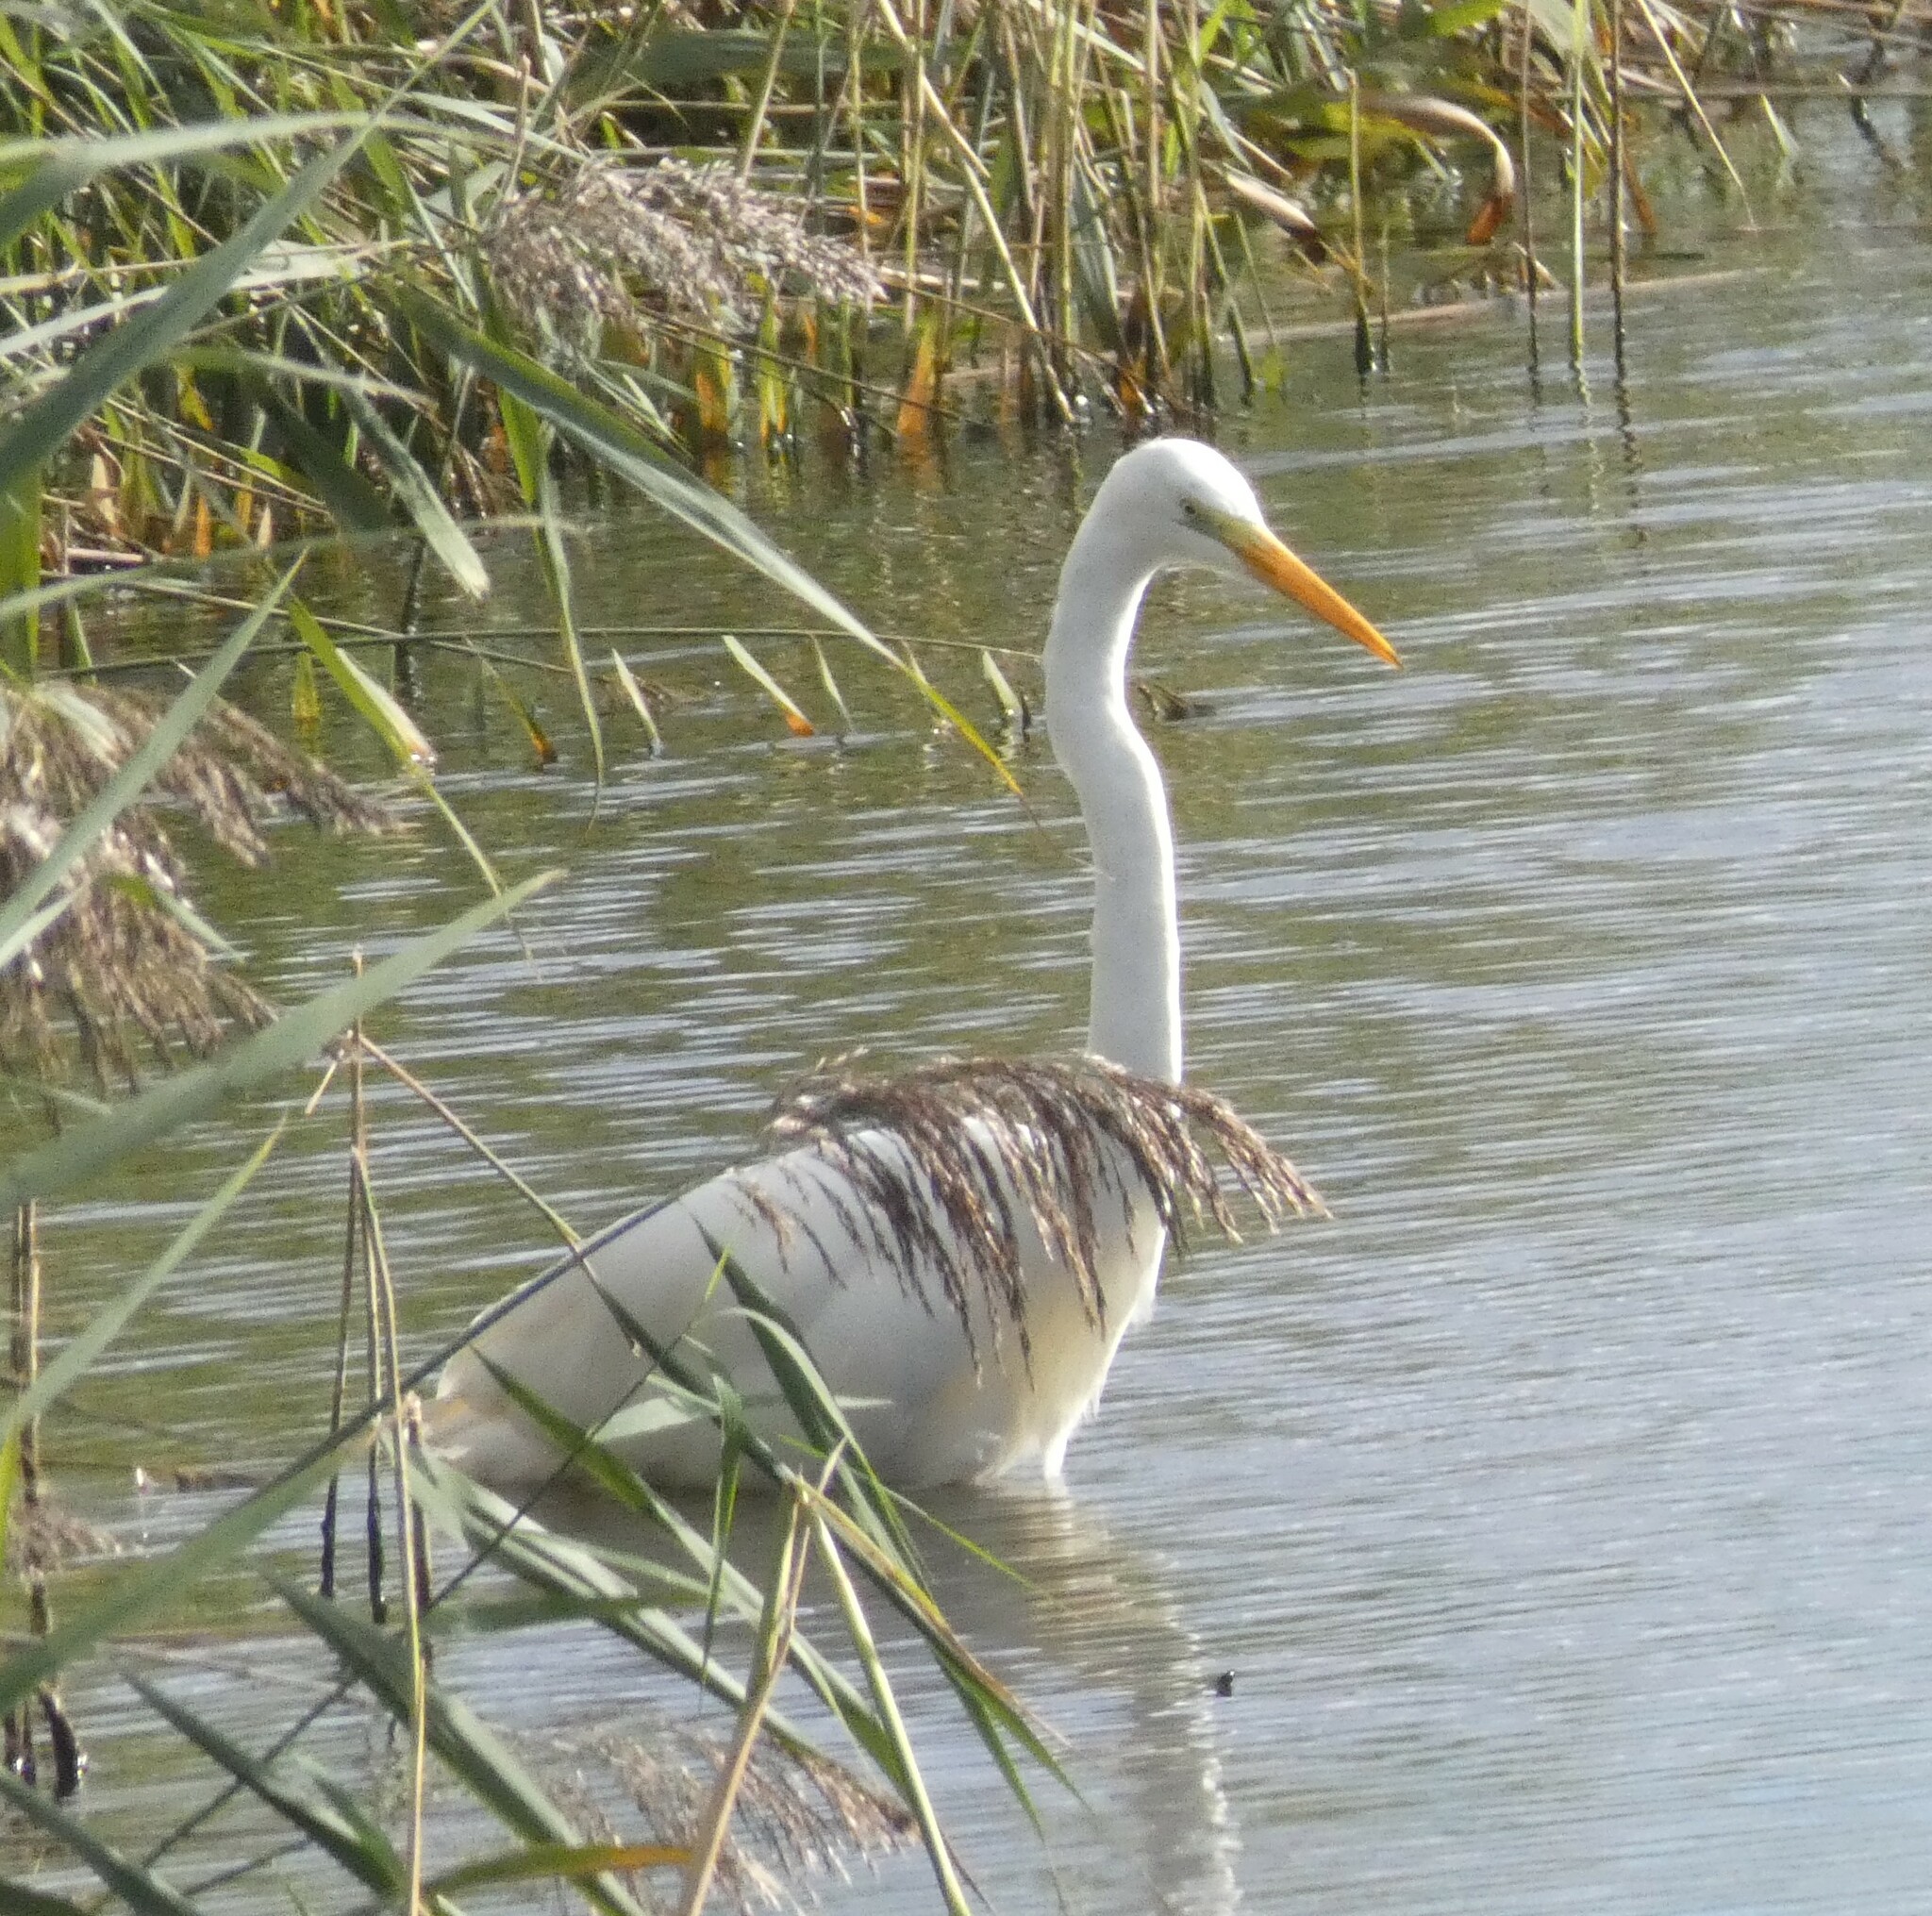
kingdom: Animalia
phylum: Chordata
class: Aves
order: Pelecaniformes
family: Ardeidae
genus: Ardea
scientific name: Ardea alba
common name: Great egret
